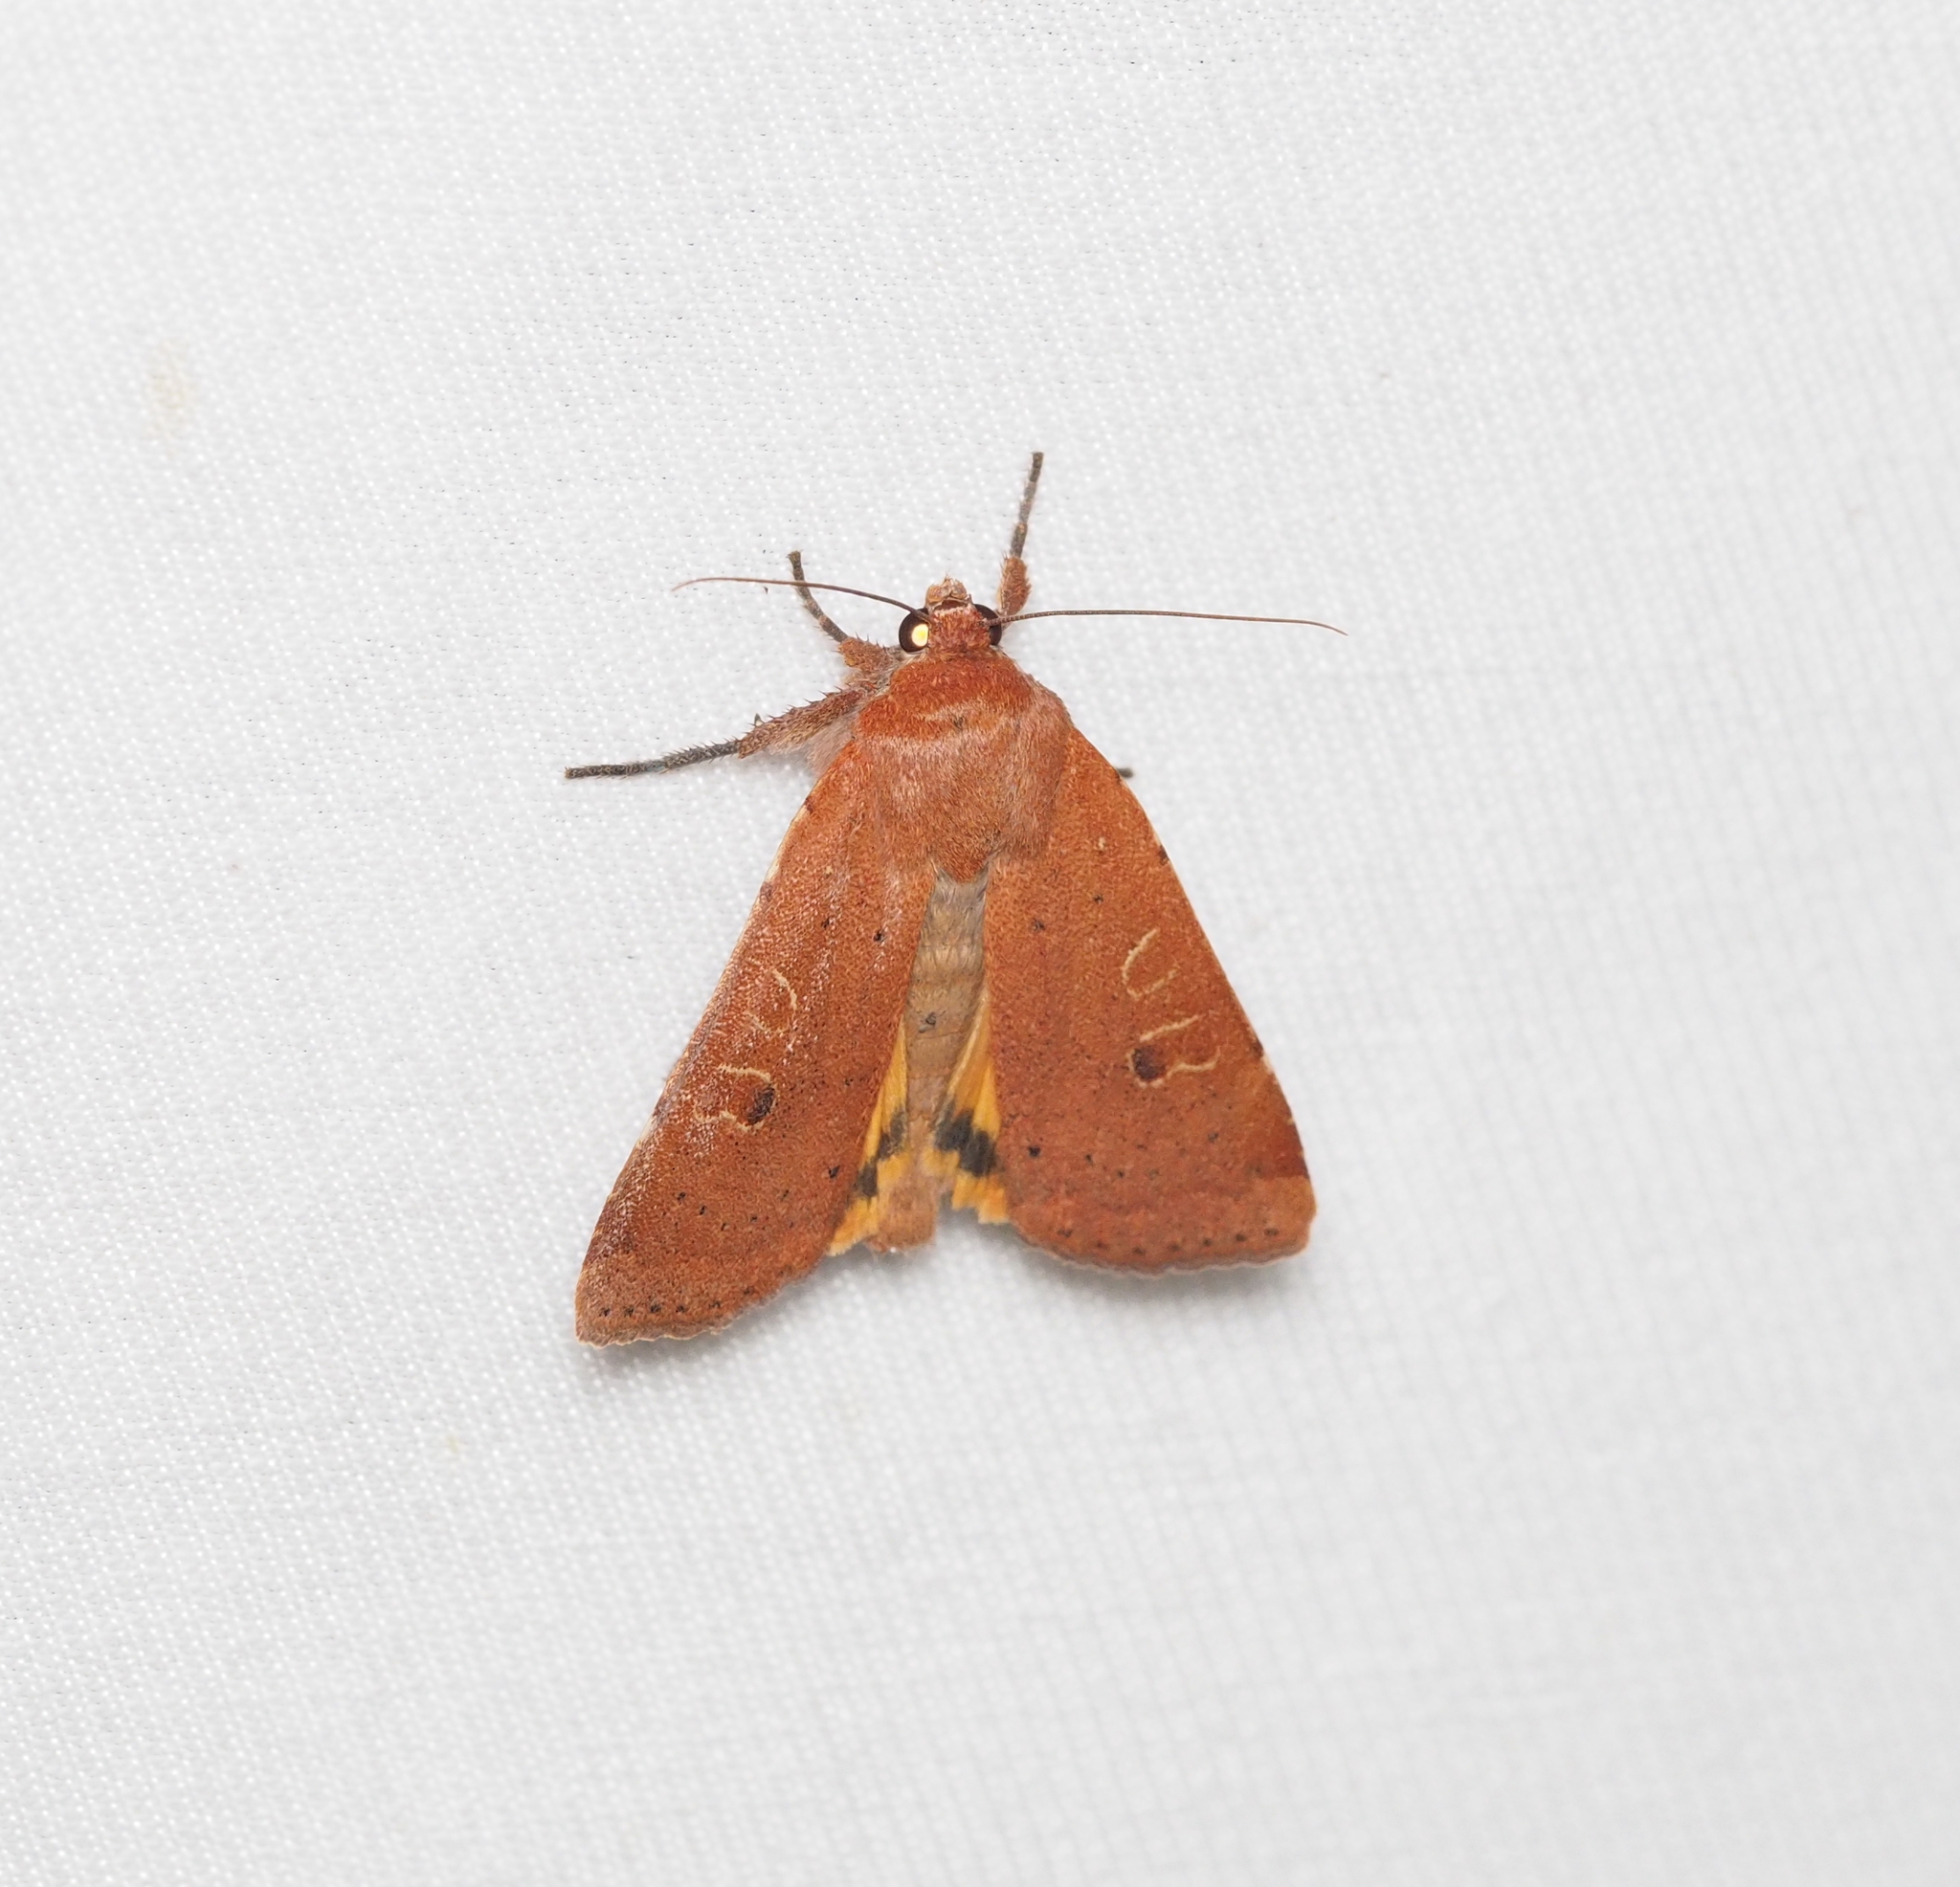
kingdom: Animalia
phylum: Arthropoda
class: Insecta
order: Lepidoptera
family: Noctuidae
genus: Noctua
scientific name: Noctua comes
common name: Lesser yellow underwing
